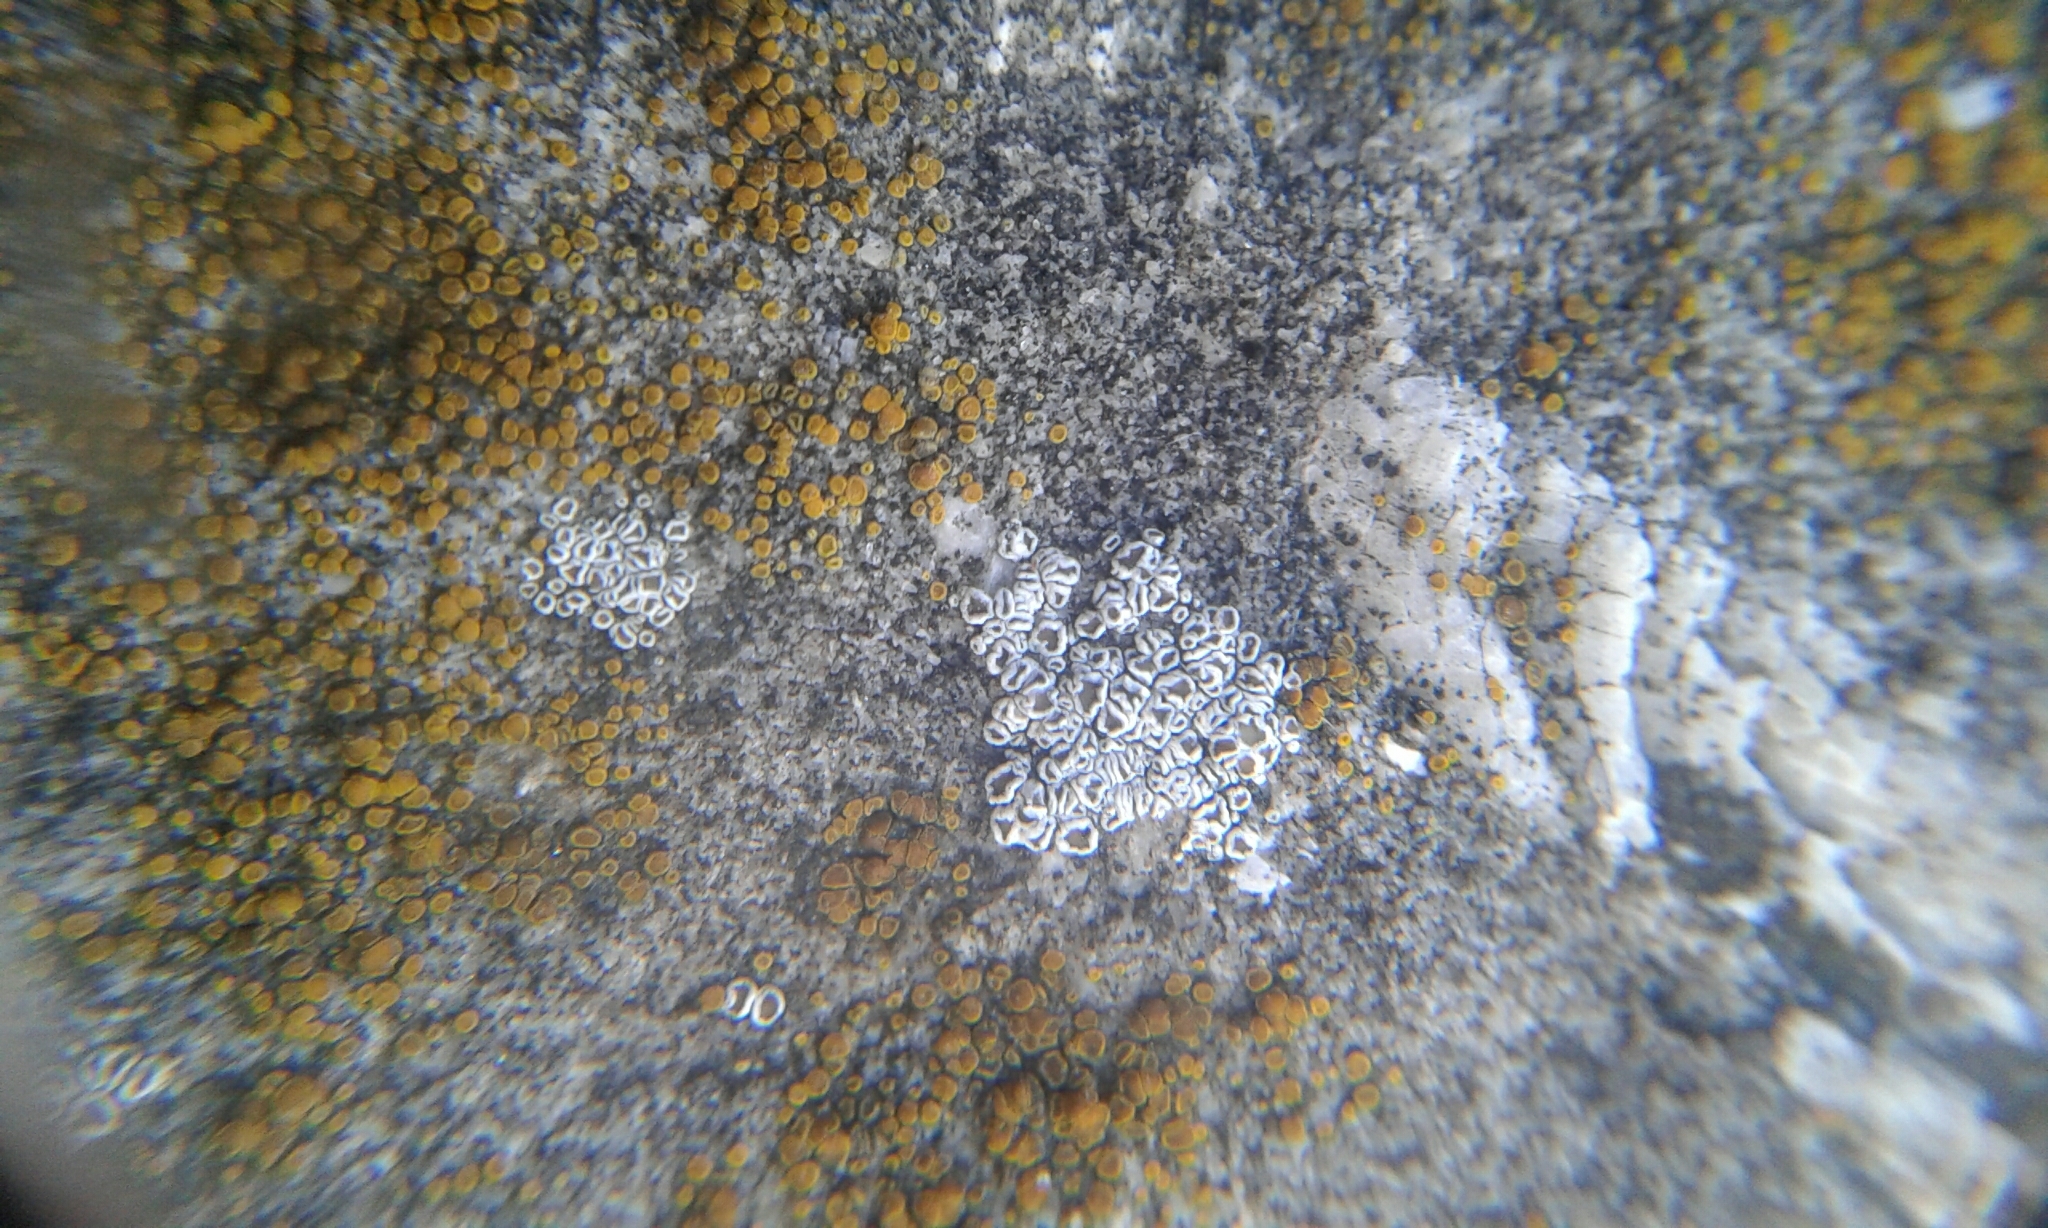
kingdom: Fungi
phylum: Ascomycota
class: Lecanoromycetes
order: Lecanorales
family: Lecanoraceae
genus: Polyozosia
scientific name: Polyozosia dispersa
